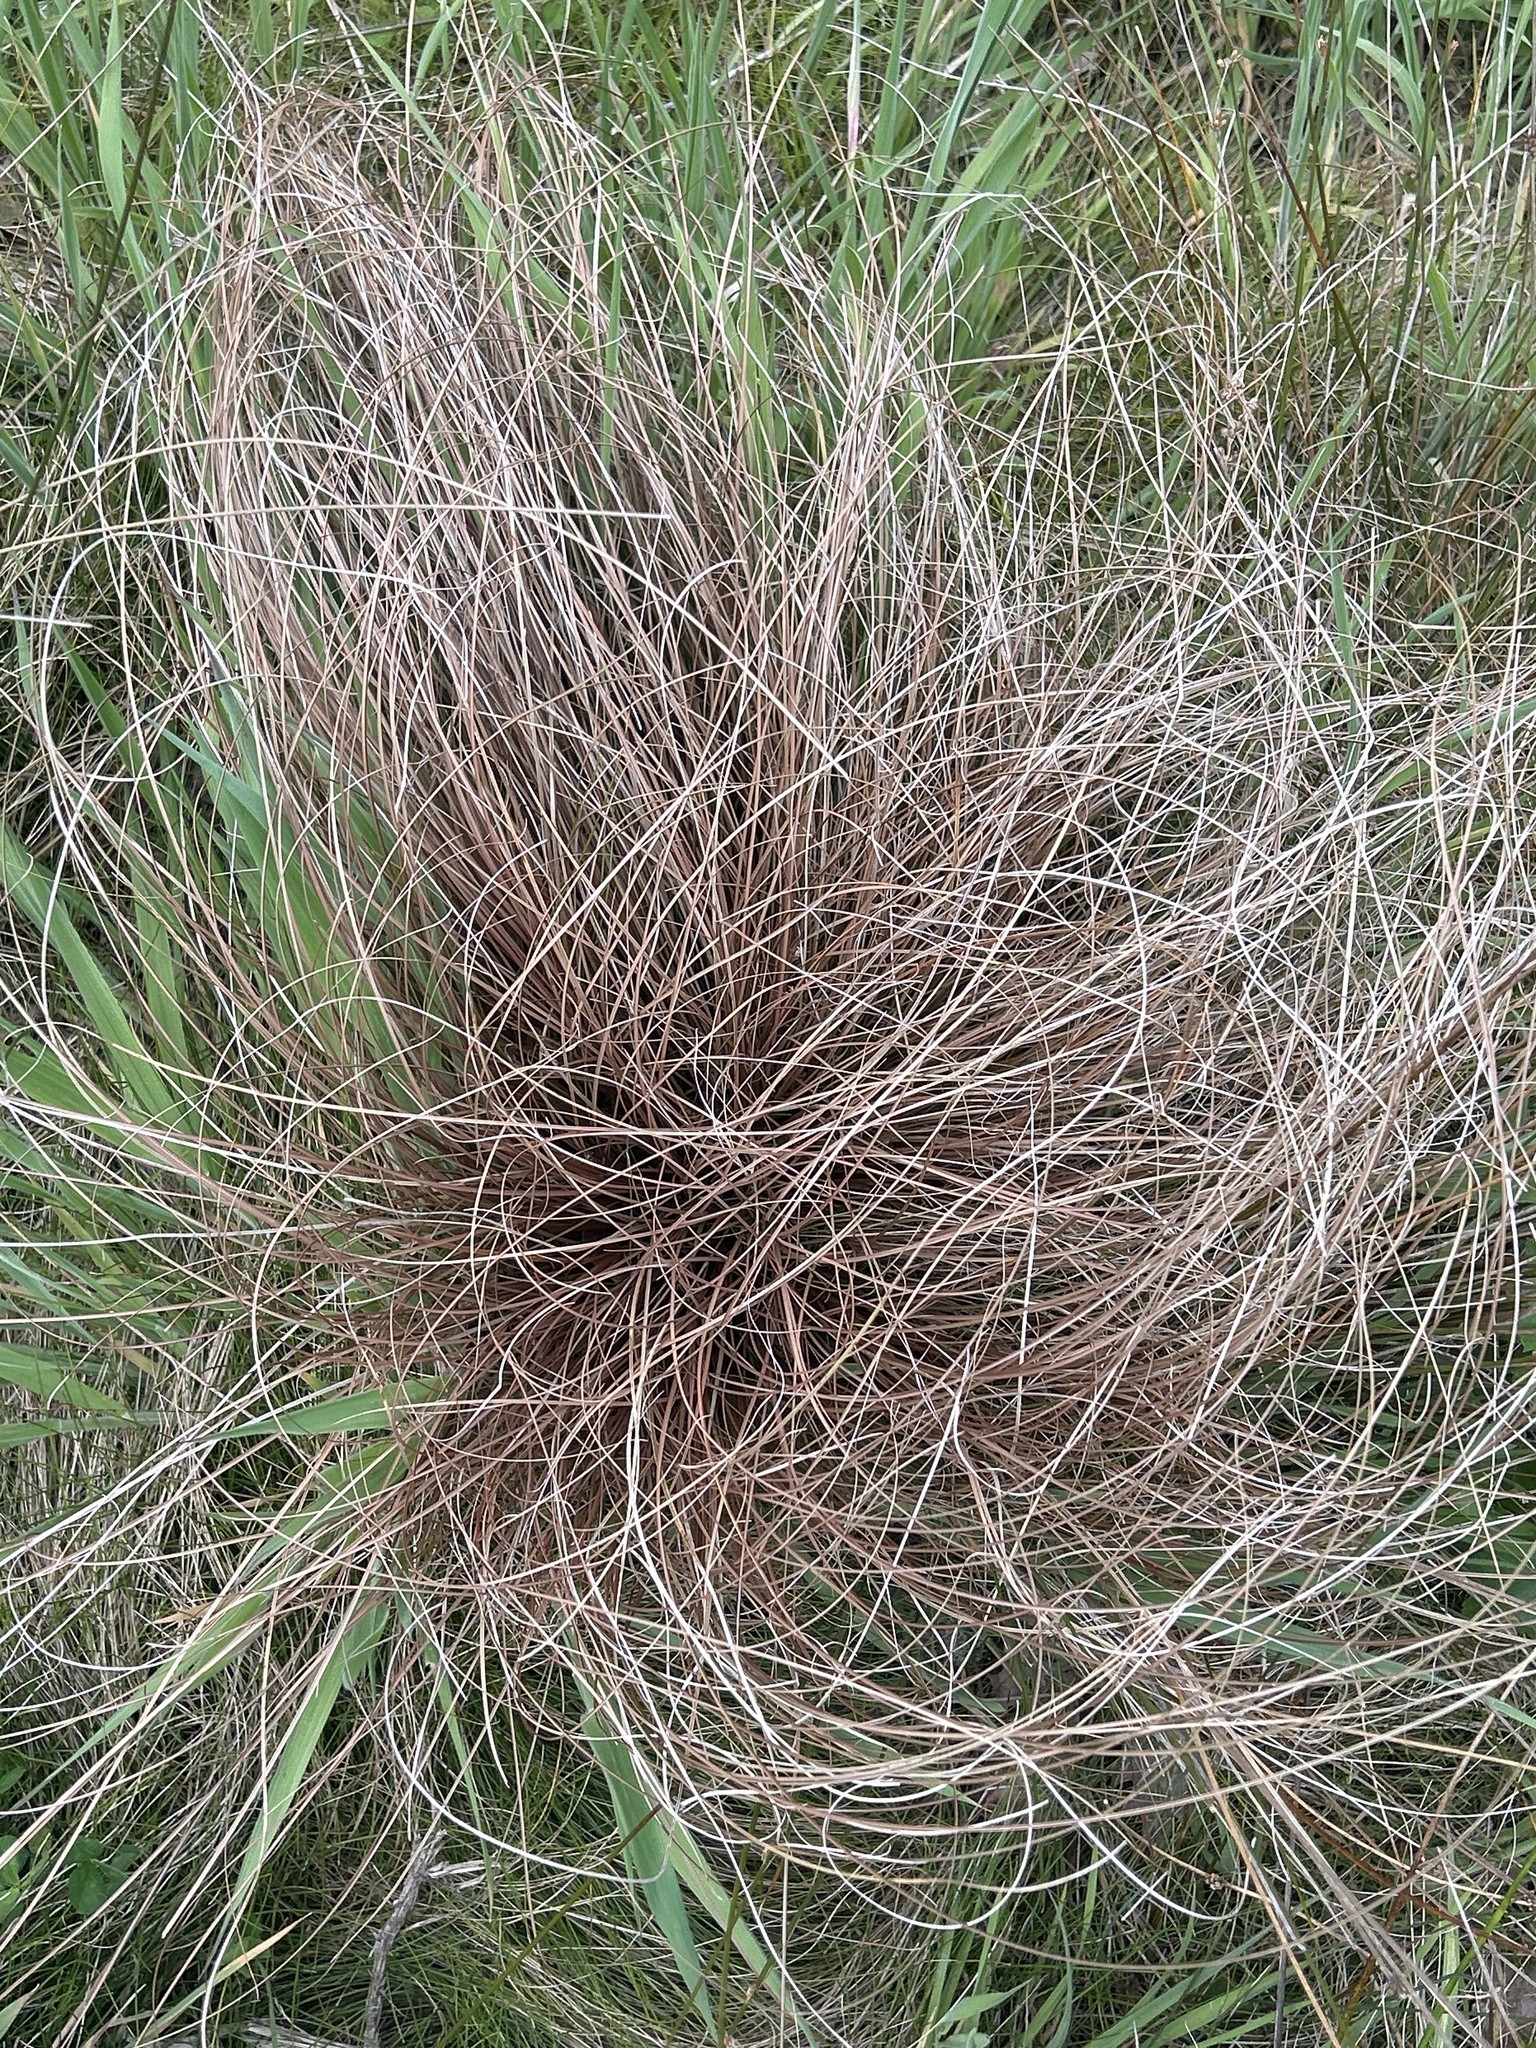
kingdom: Plantae
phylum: Tracheophyta
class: Liliopsida
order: Poales
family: Cyperaceae
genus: Schoenus
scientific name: Schoenus pauciflorus
